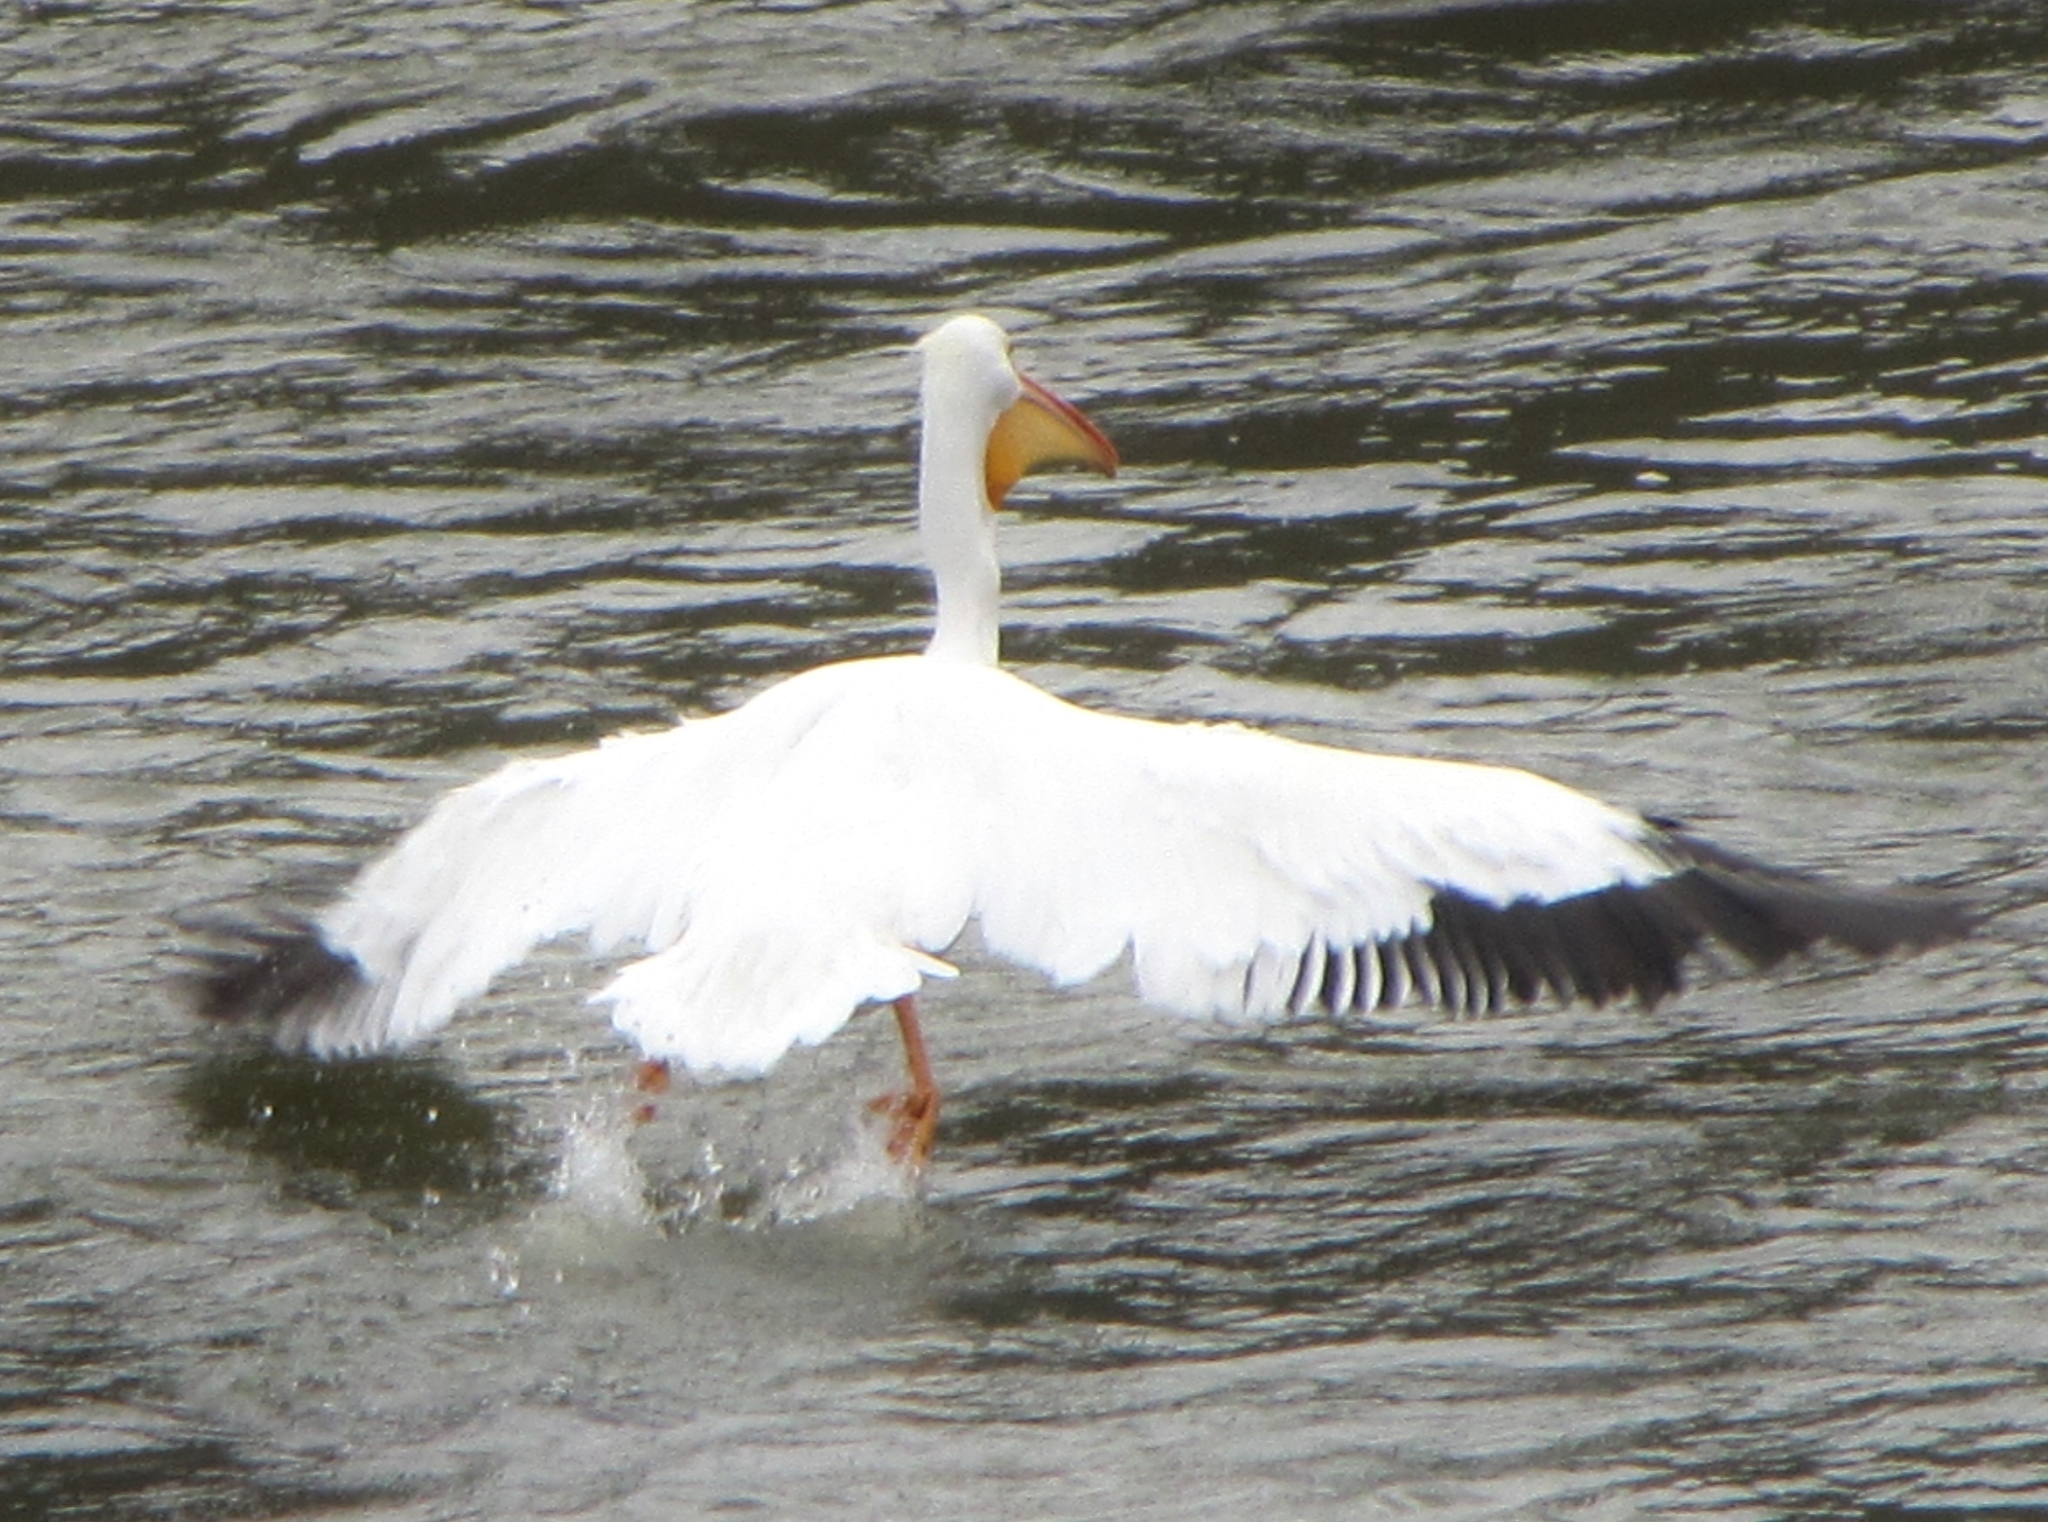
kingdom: Animalia
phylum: Chordata
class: Aves
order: Pelecaniformes
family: Pelecanidae
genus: Pelecanus
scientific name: Pelecanus erythrorhynchos
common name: American white pelican
